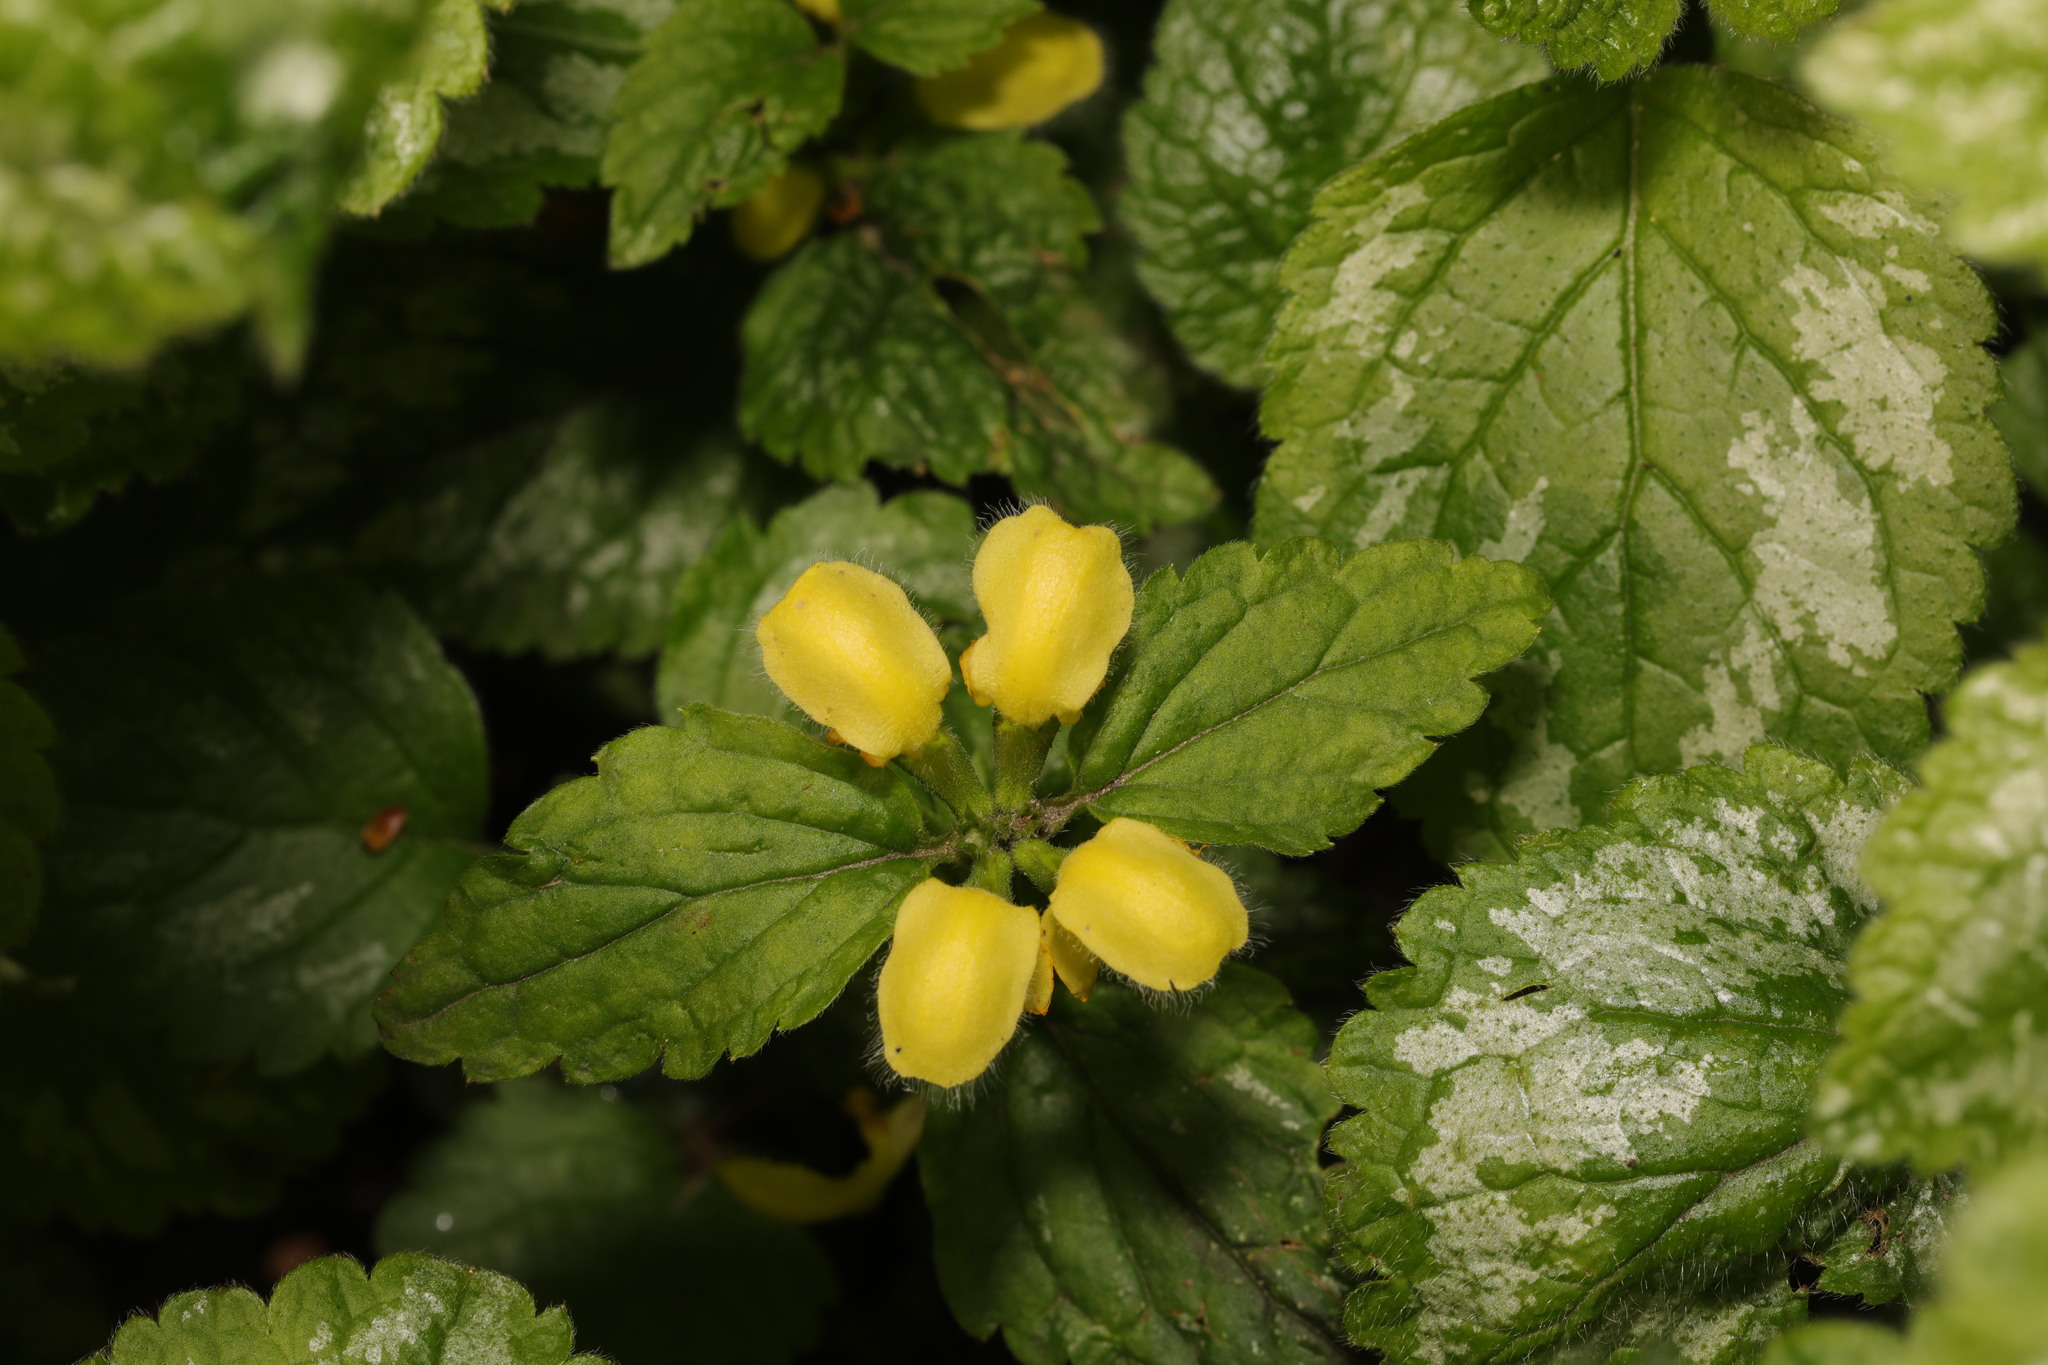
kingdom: Plantae
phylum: Tracheophyta
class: Magnoliopsida
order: Lamiales
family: Lamiaceae
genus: Lamium
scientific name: Lamium galeobdolon
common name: Yellow archangel
